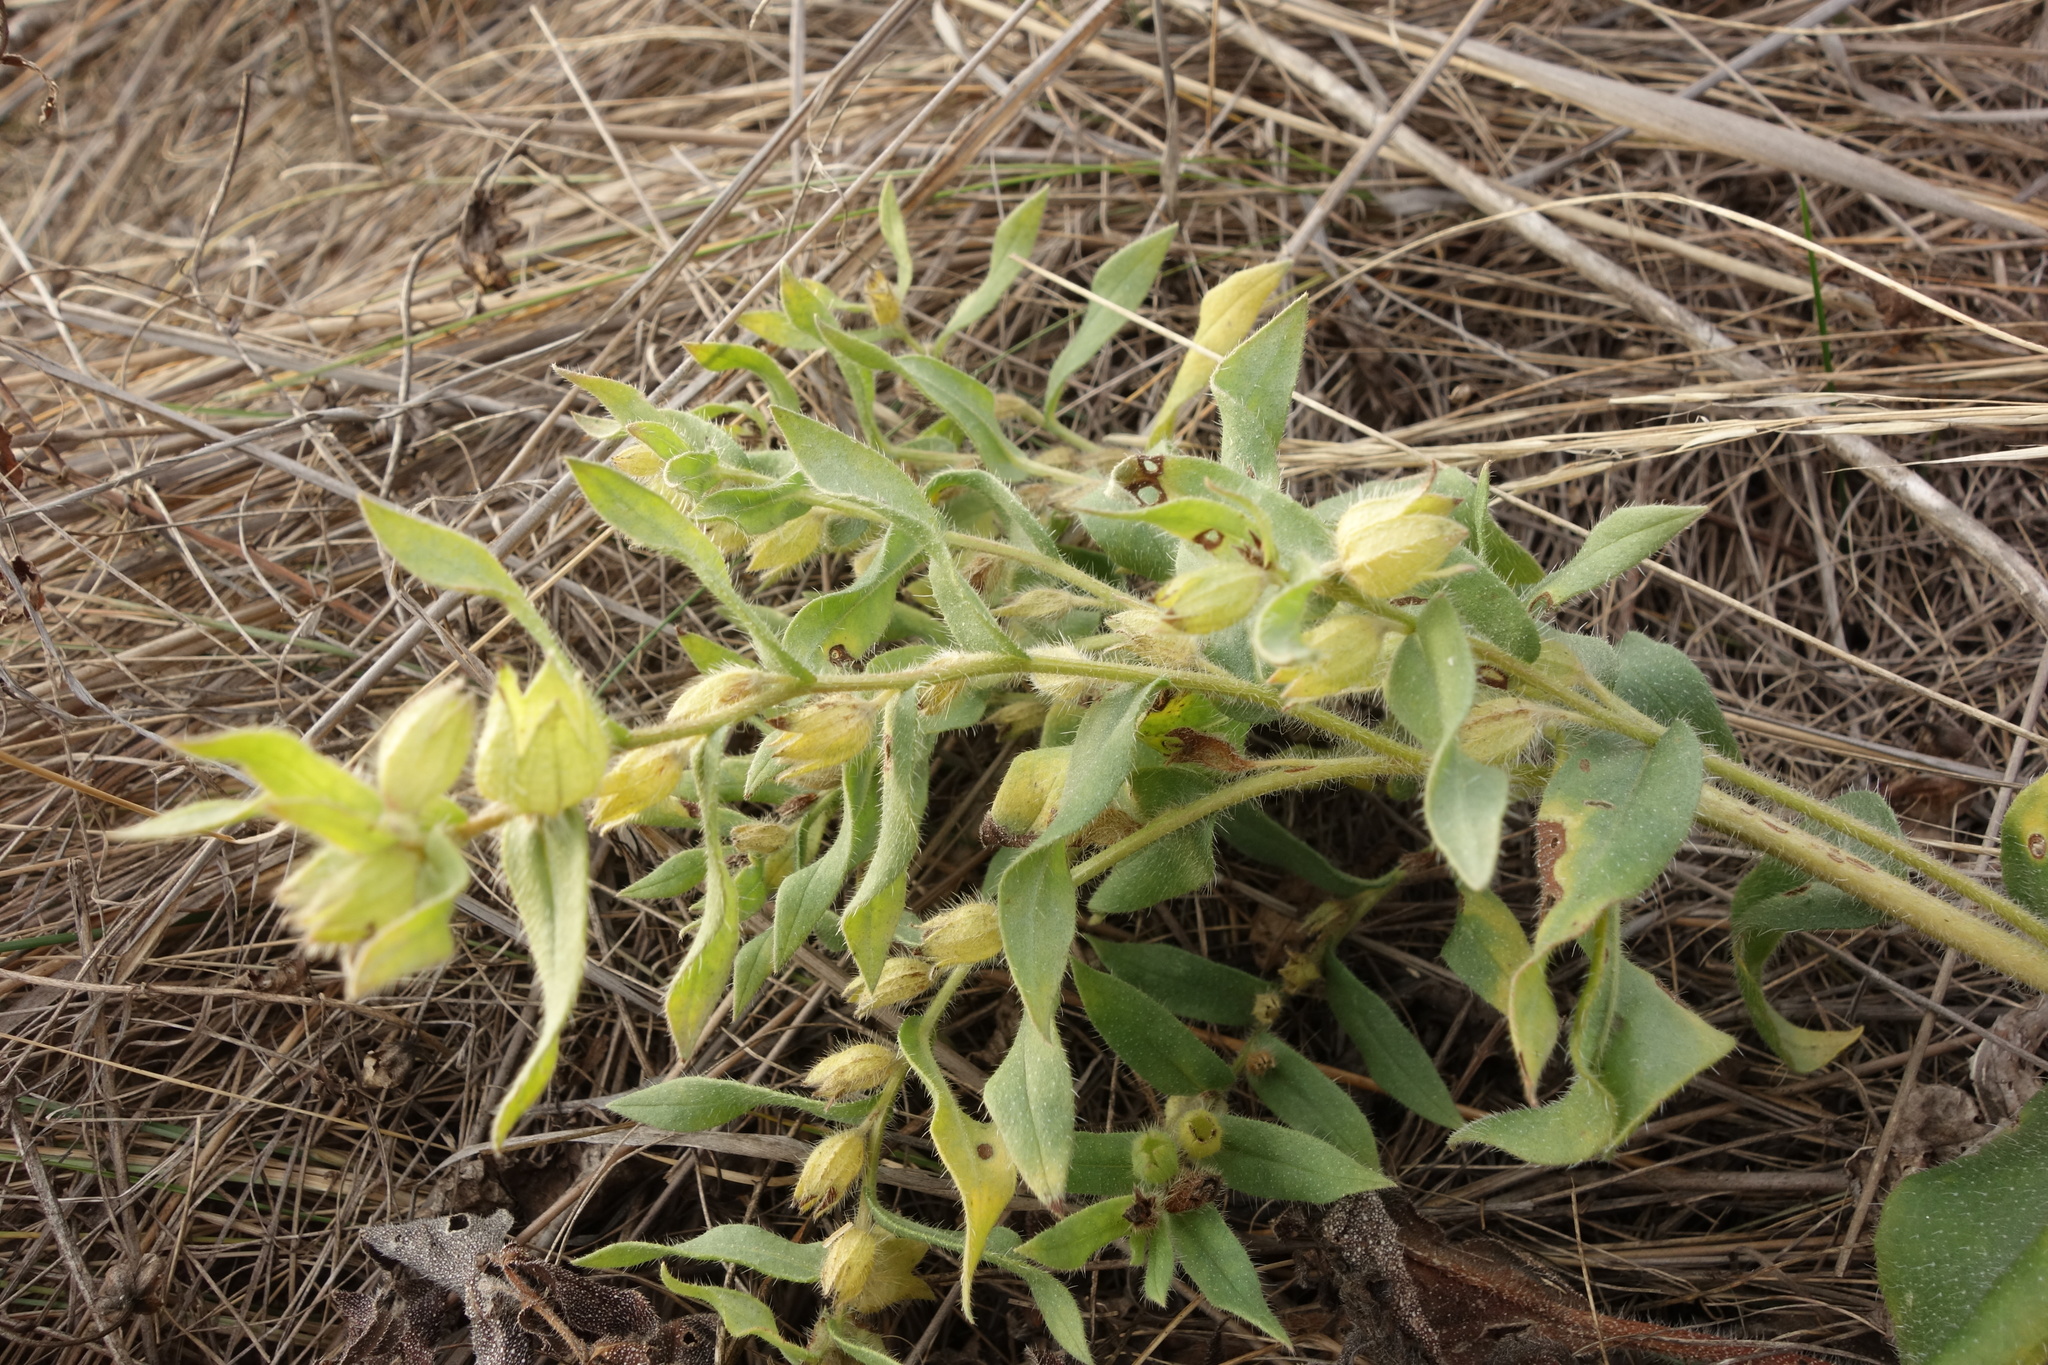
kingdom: Plantae
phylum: Tracheophyta
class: Magnoliopsida
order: Boraginales
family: Boraginaceae
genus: Nonea
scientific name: Nonea pulla
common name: Brown nonea
